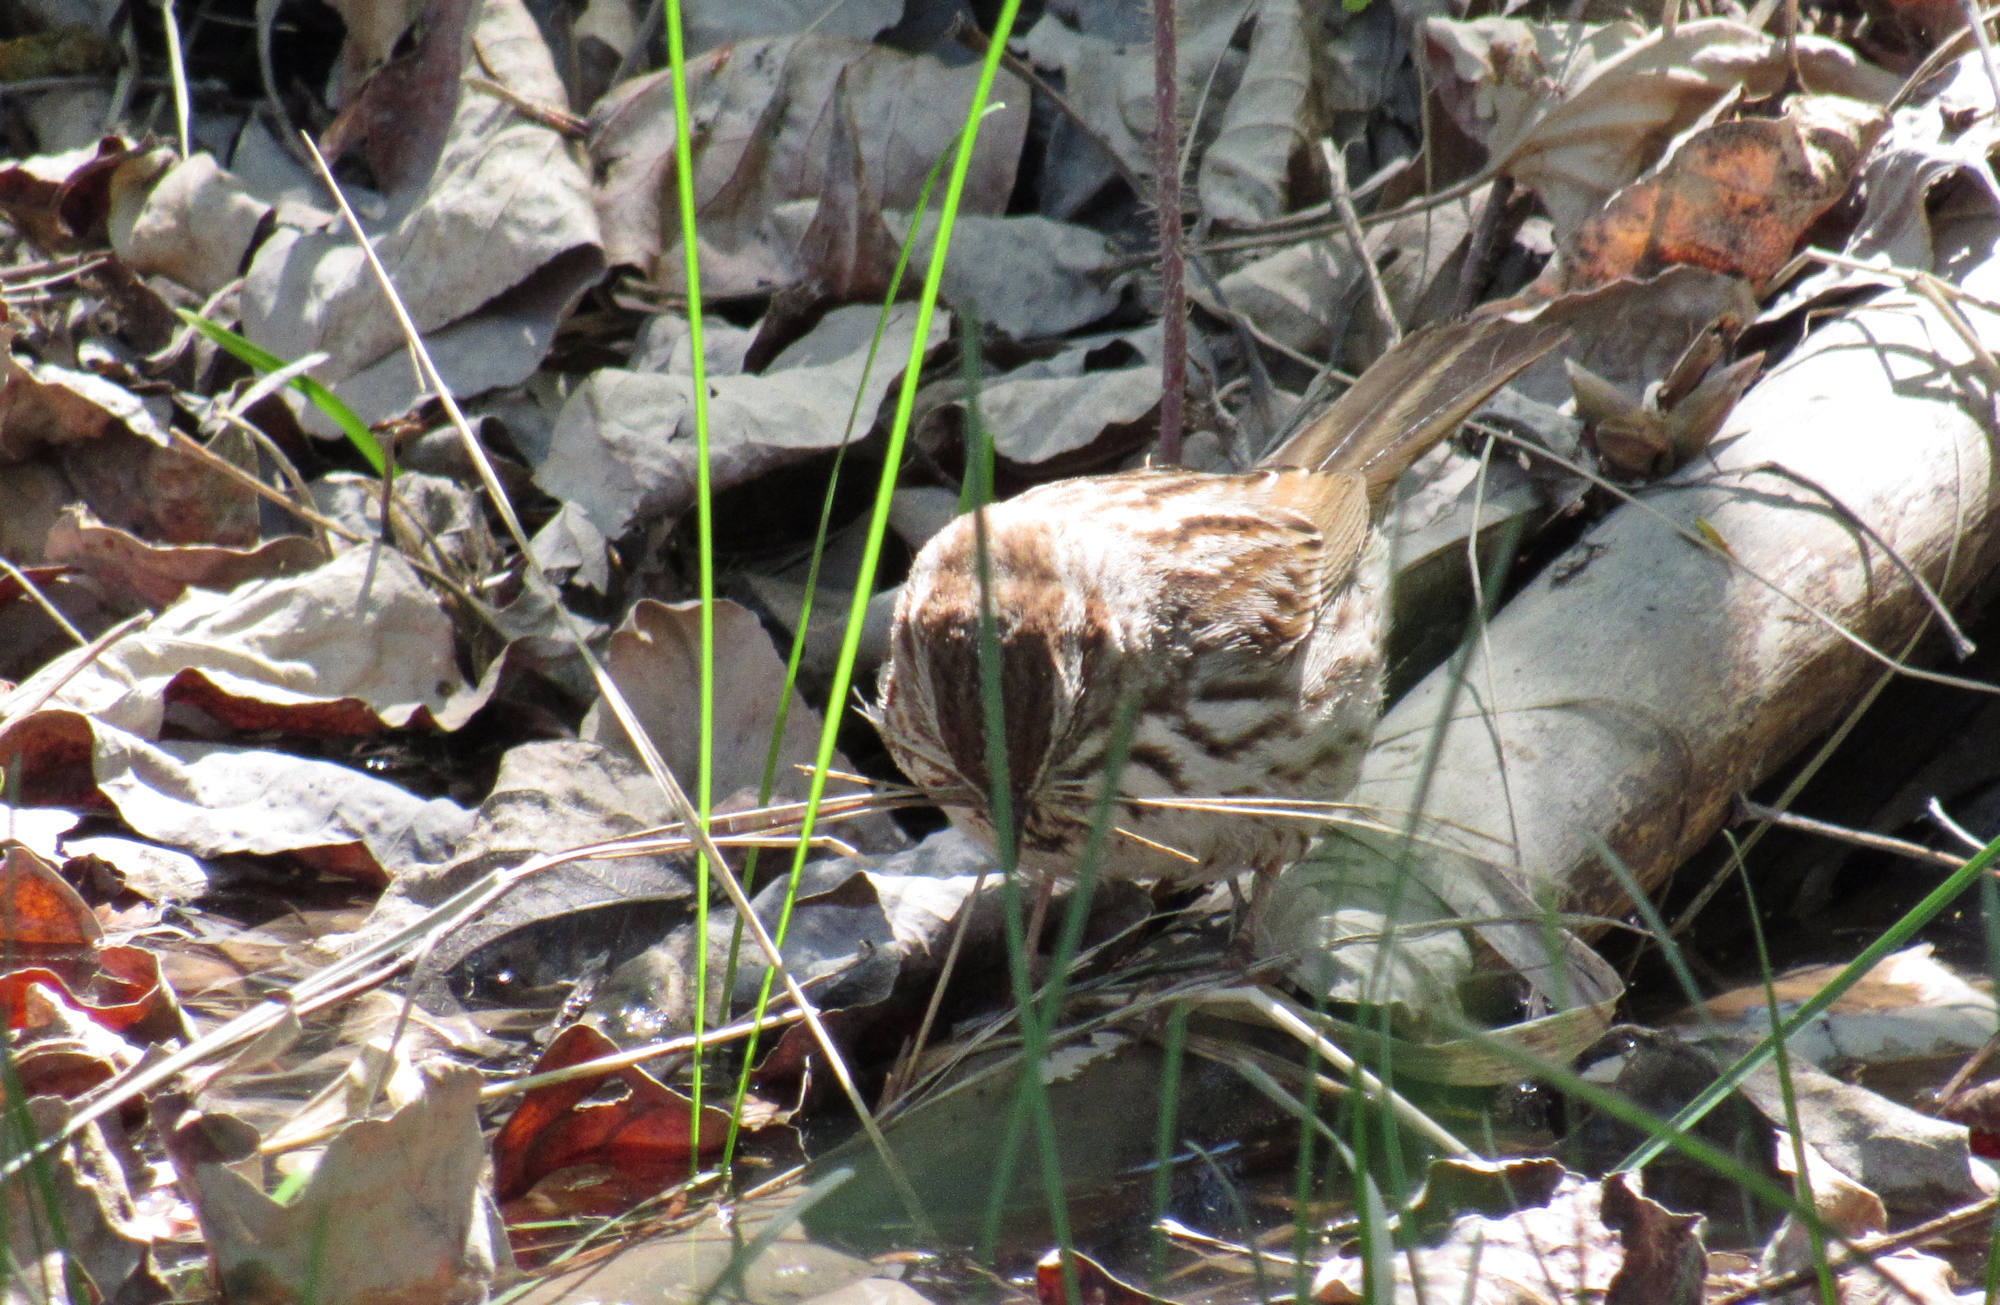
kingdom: Animalia
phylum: Chordata
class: Aves
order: Passeriformes
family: Passerellidae
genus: Melospiza
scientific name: Melospiza melodia
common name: Song sparrow
